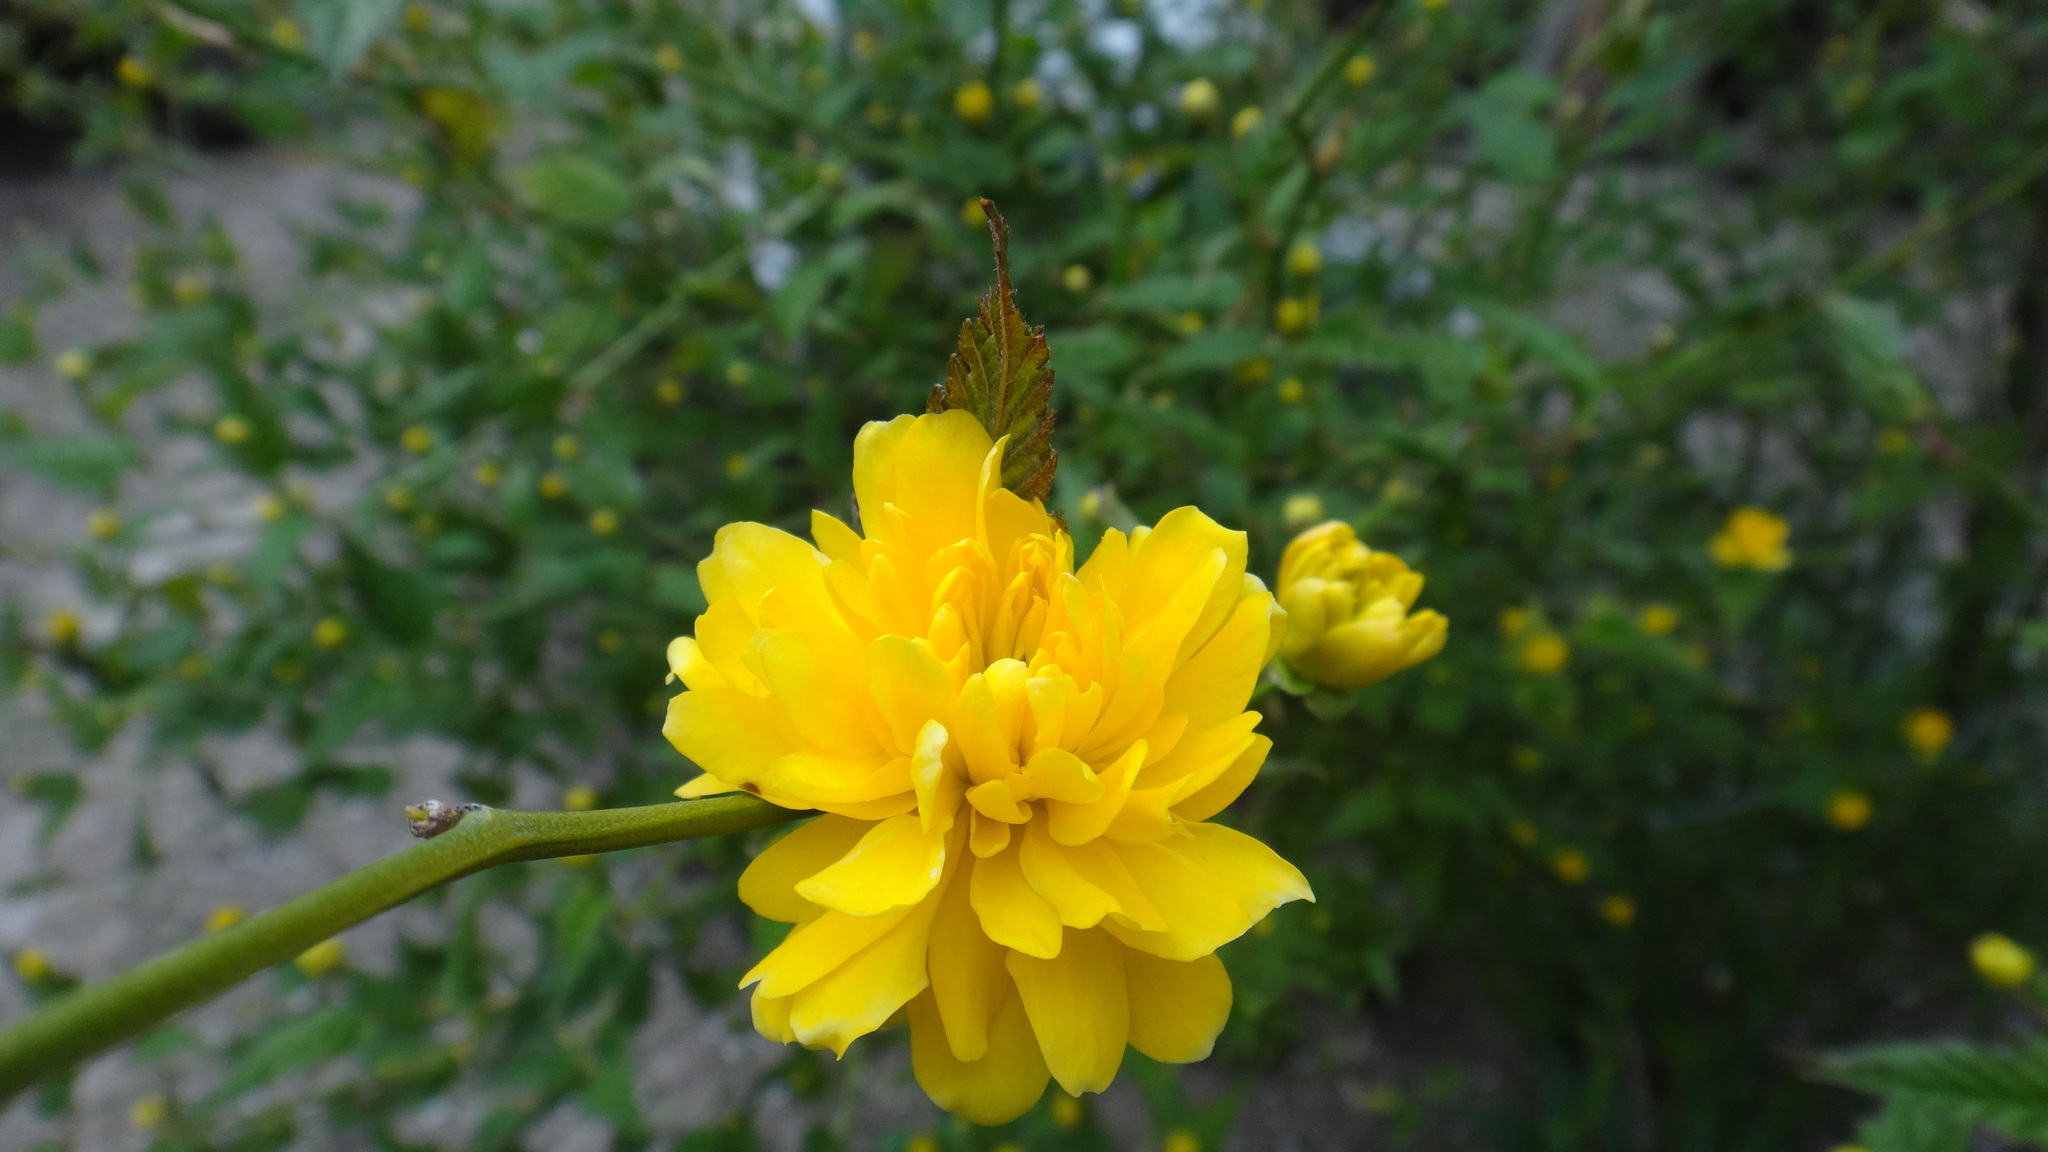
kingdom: Plantae
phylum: Tracheophyta
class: Magnoliopsida
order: Rosales
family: Rosaceae
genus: Kerria
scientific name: Kerria japonica
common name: Japanese kerria
